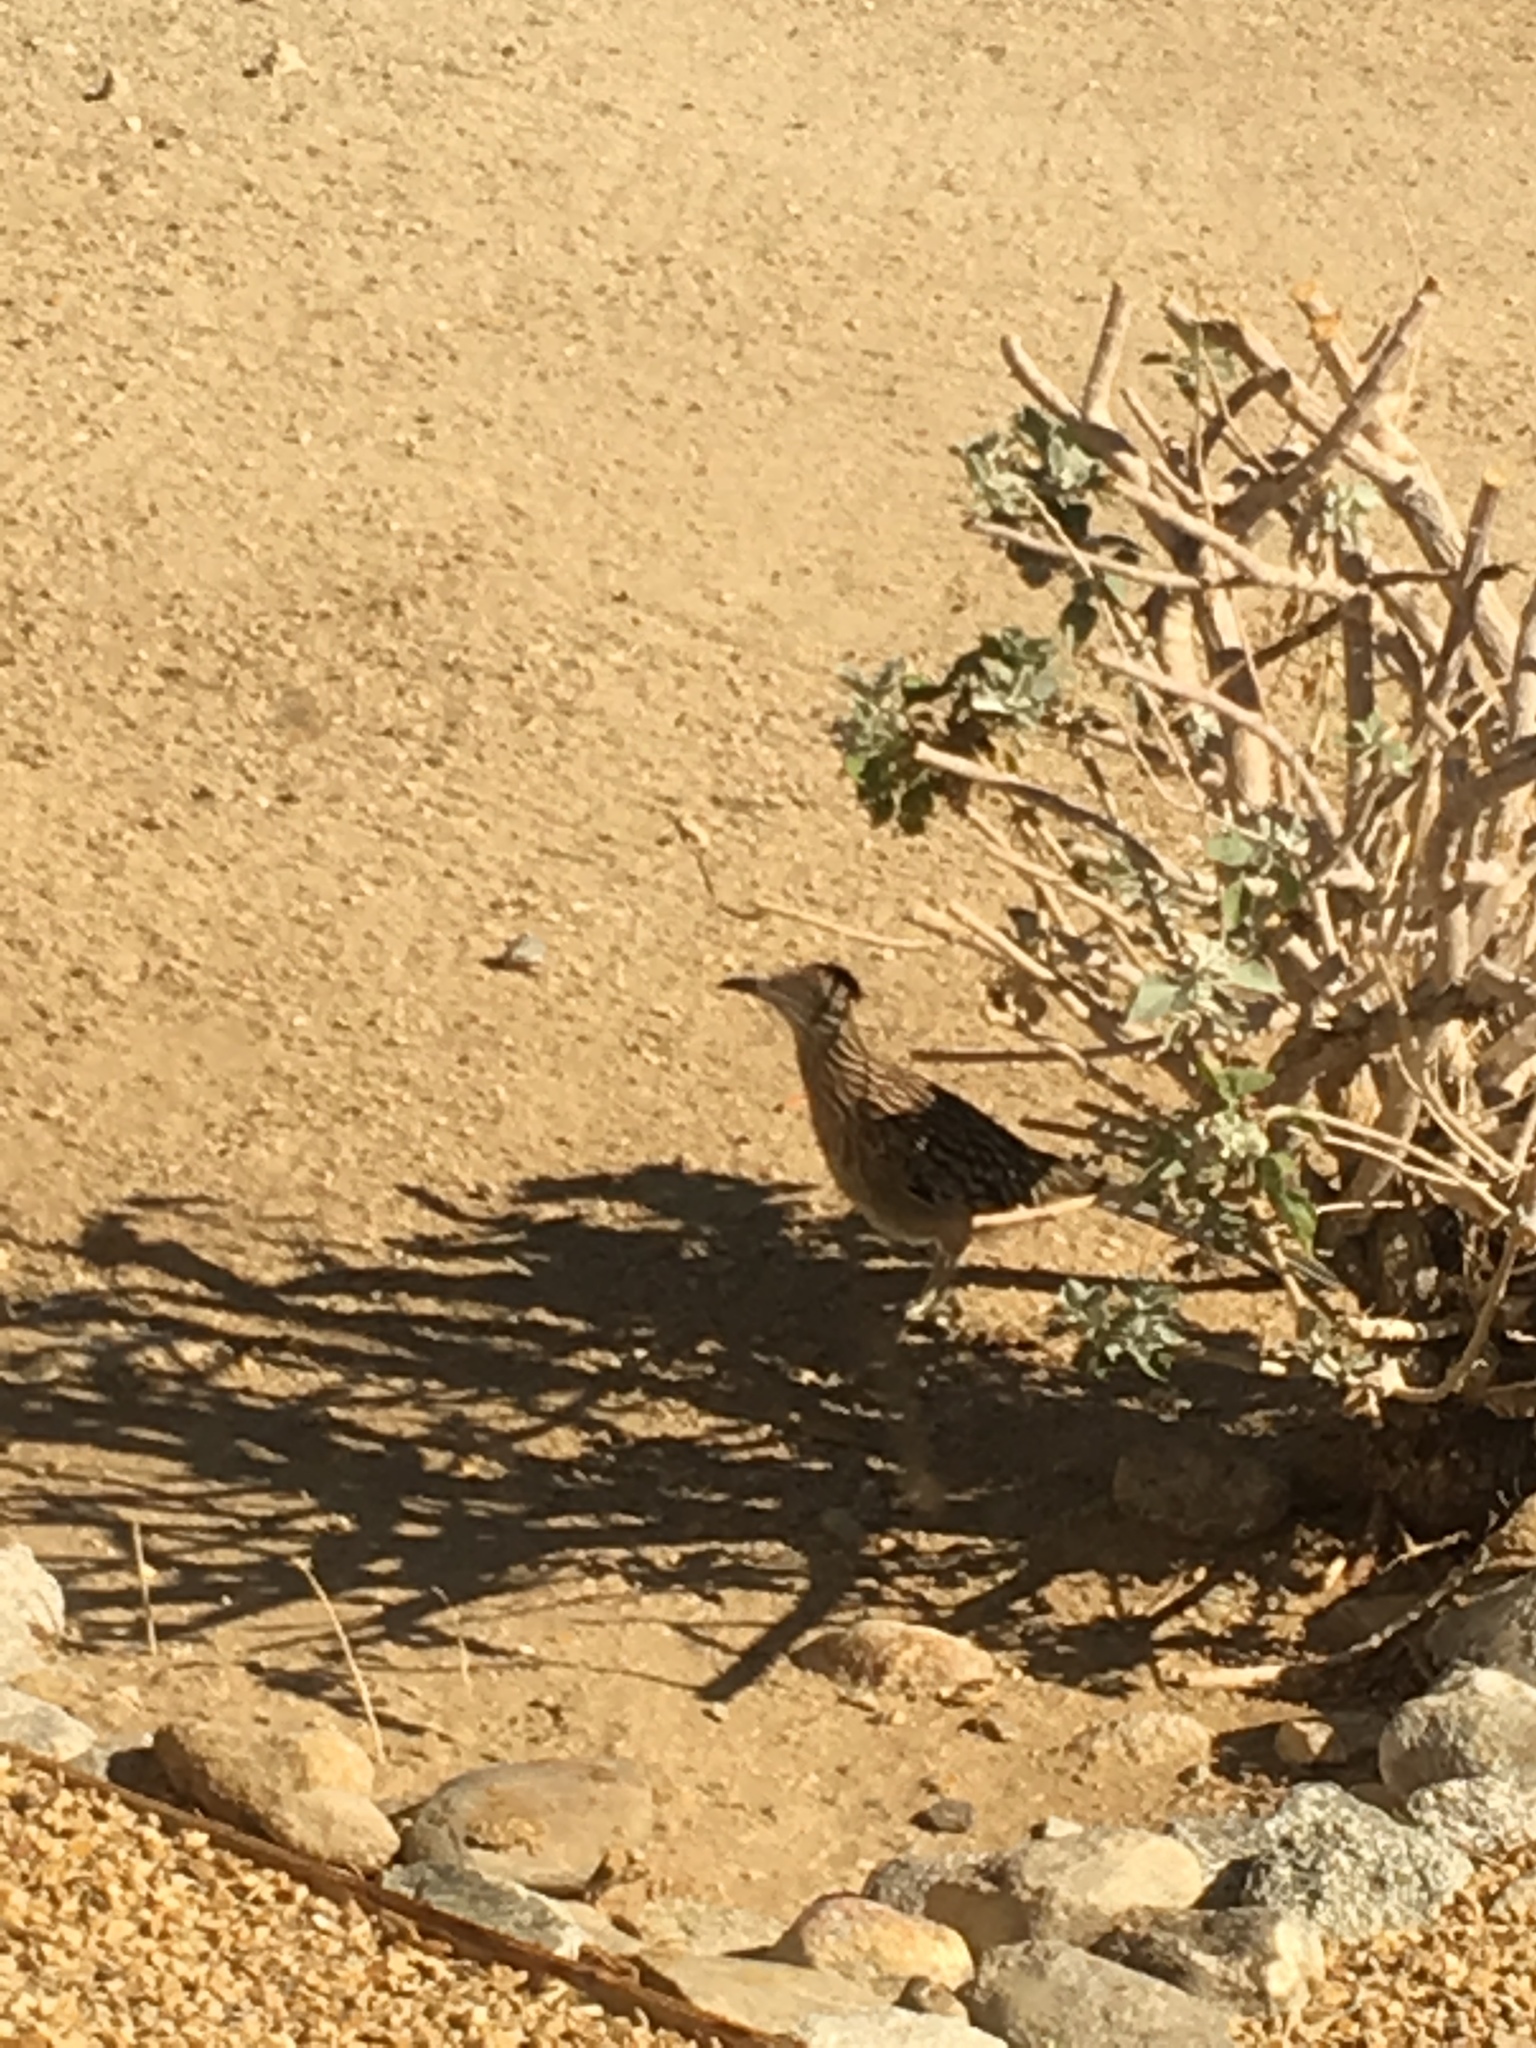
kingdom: Animalia
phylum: Chordata
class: Aves
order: Cuculiformes
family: Cuculidae
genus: Geococcyx
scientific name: Geococcyx californianus
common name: Greater roadrunner
